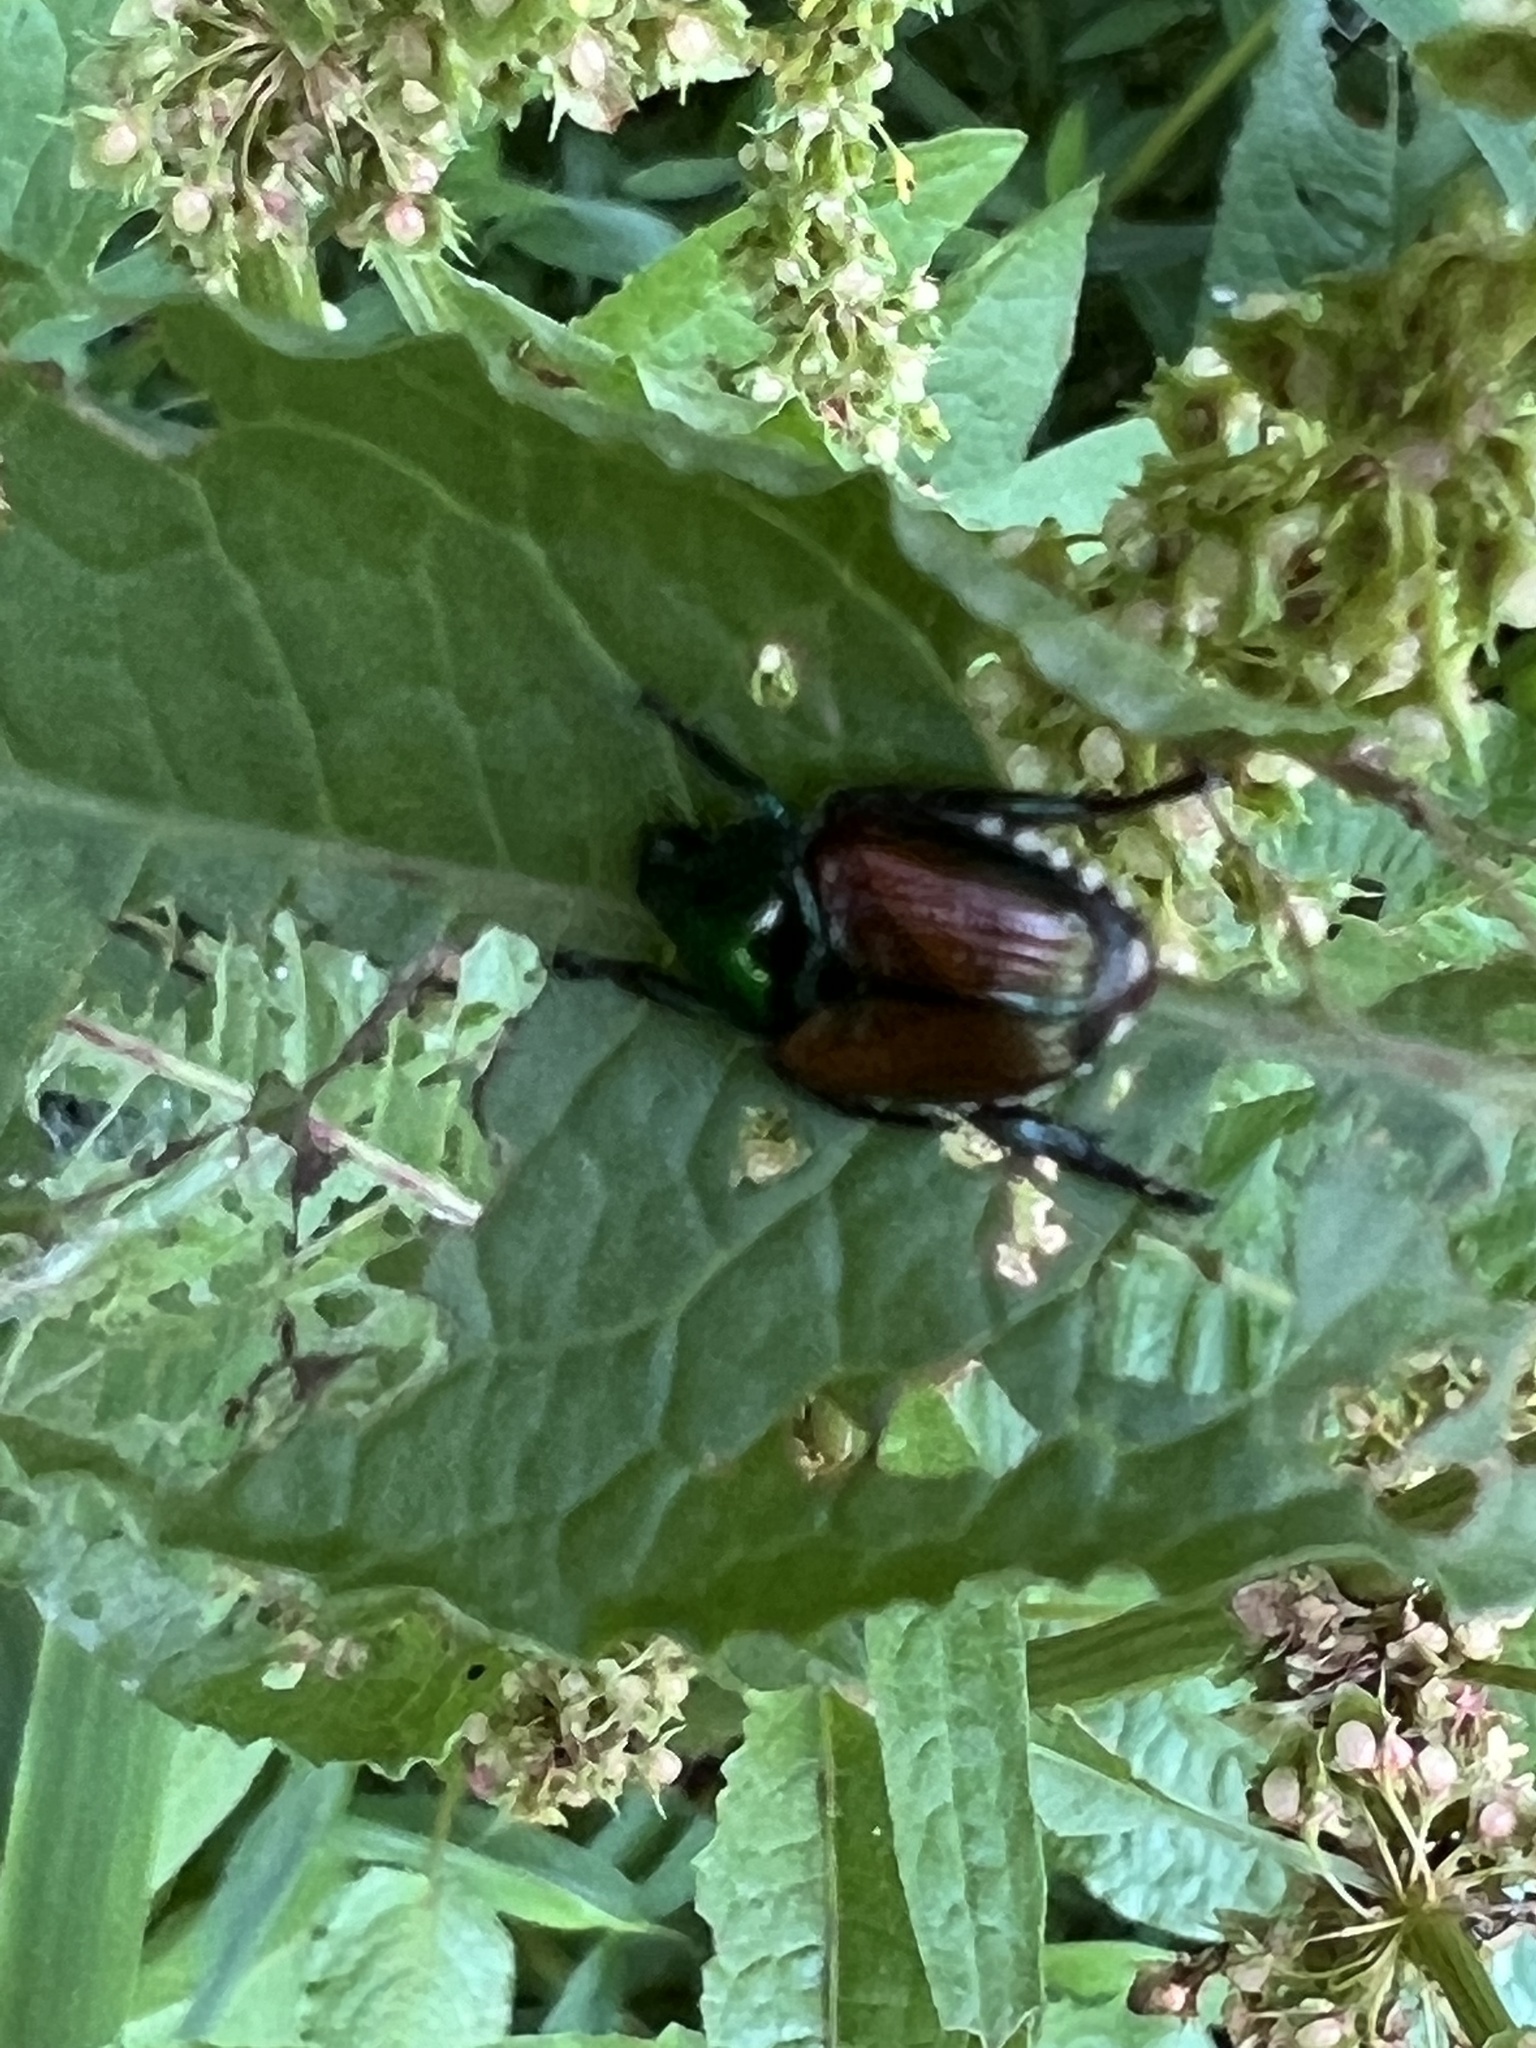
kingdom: Animalia
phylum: Arthropoda
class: Insecta
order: Coleoptera
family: Scarabaeidae
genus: Popillia
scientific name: Popillia japonica
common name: Japanese beetle
